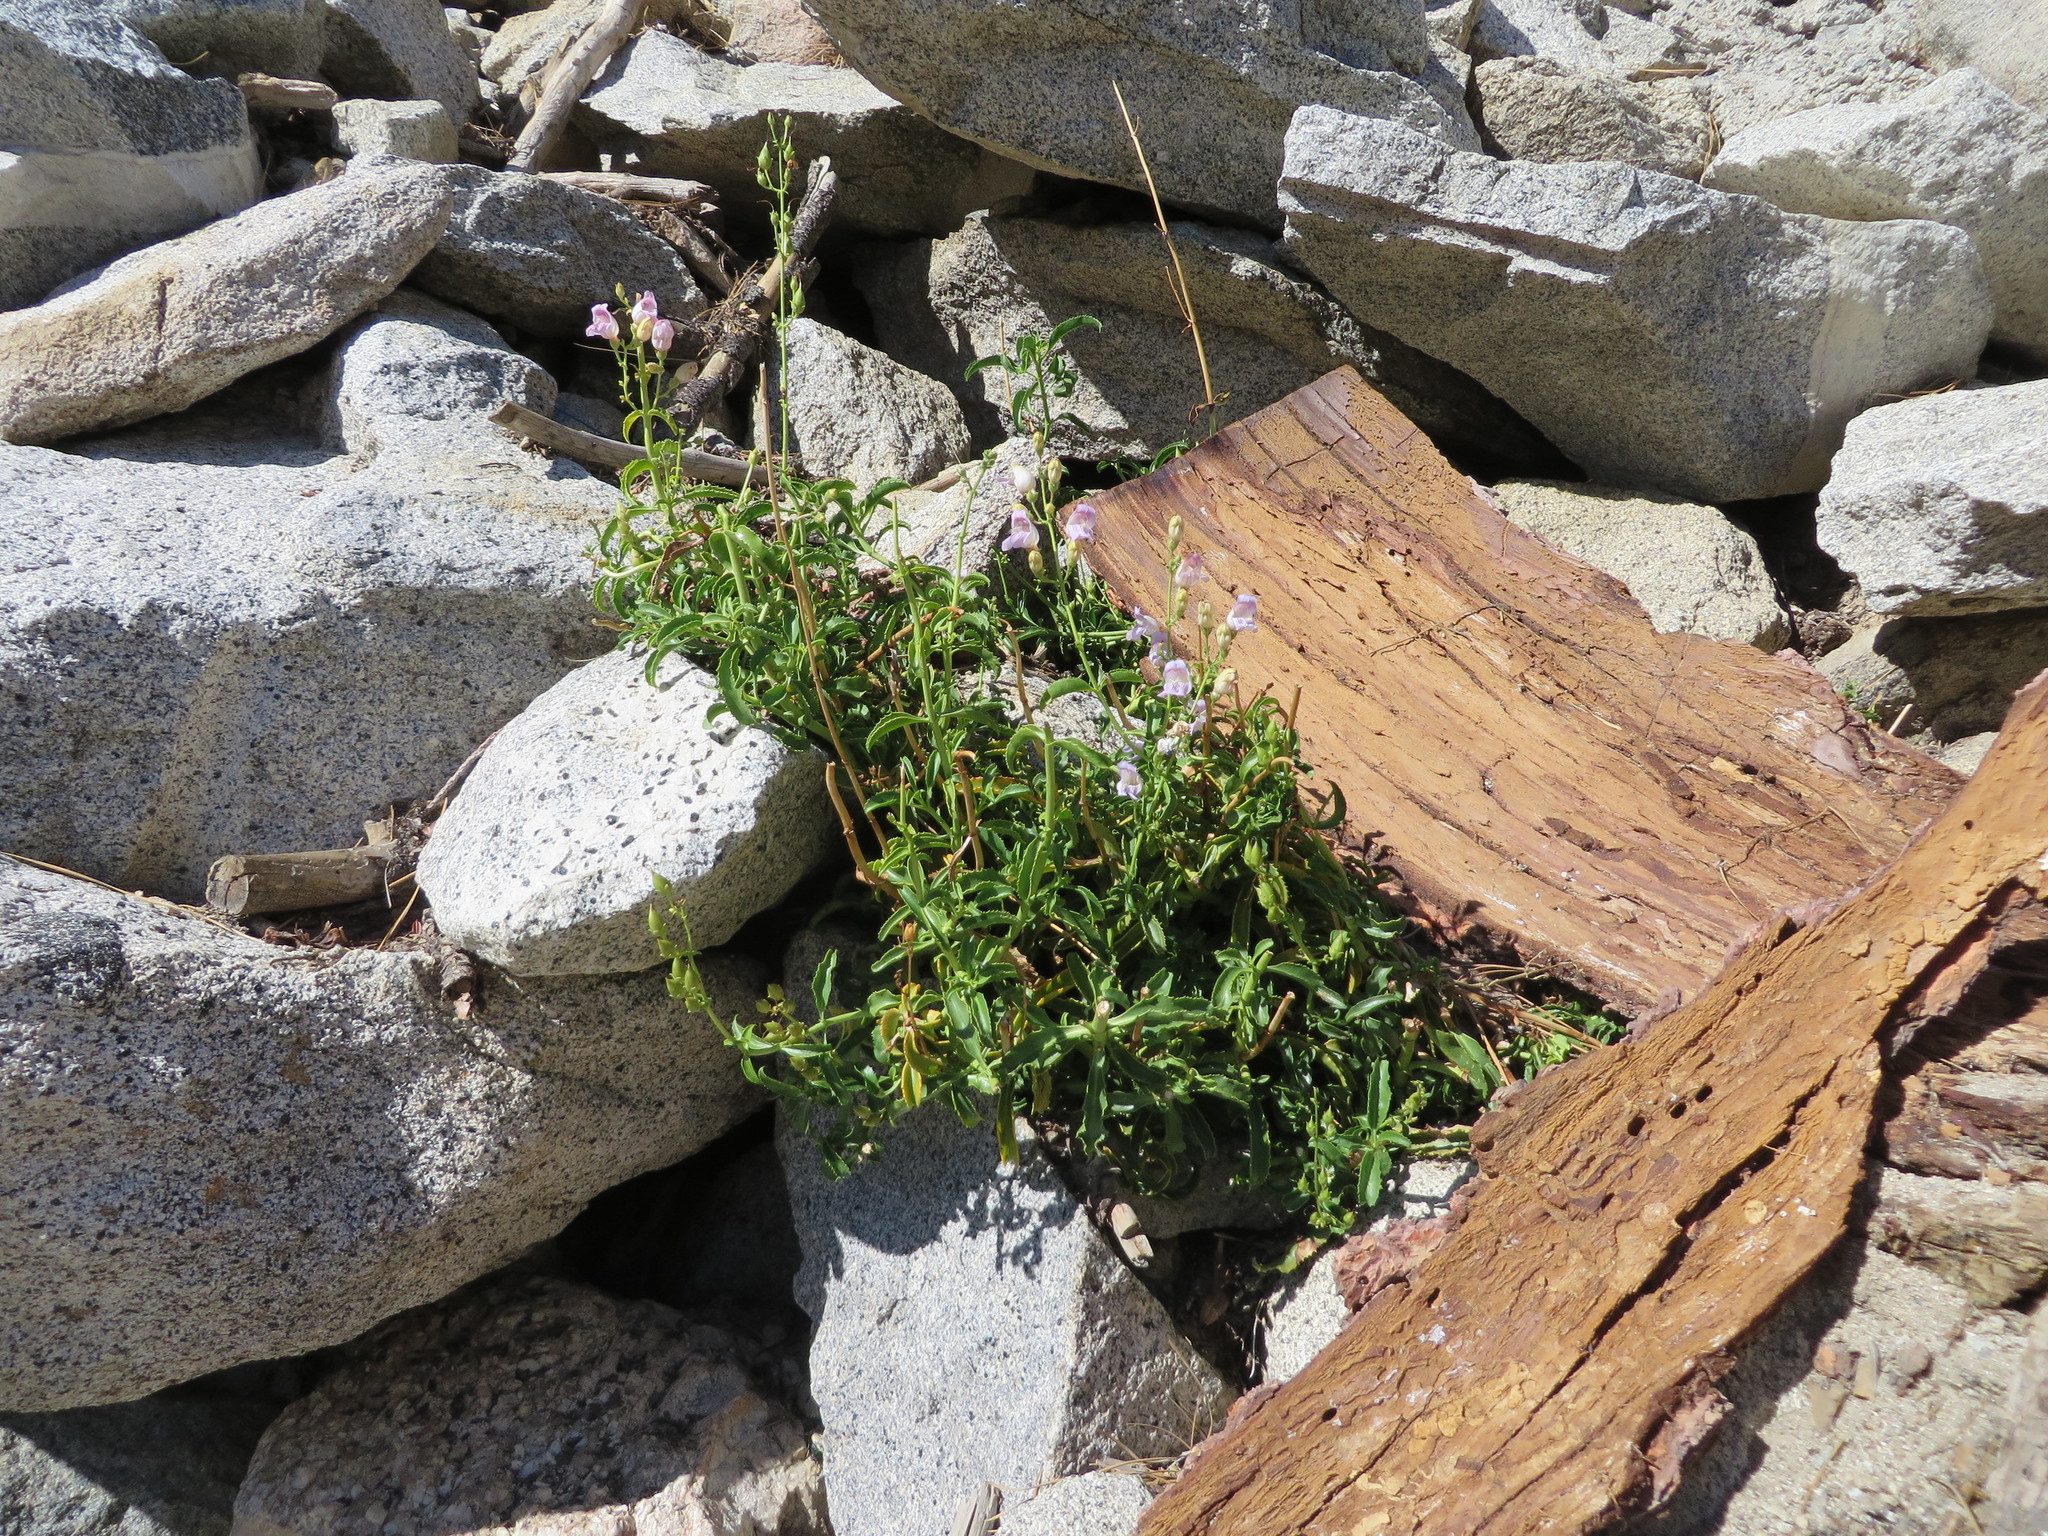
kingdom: Plantae
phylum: Tracheophyta
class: Magnoliopsida
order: Lamiales
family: Plantaginaceae
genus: Penstemon
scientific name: Penstemon grinnellii
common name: Grinnell's beardtongue
